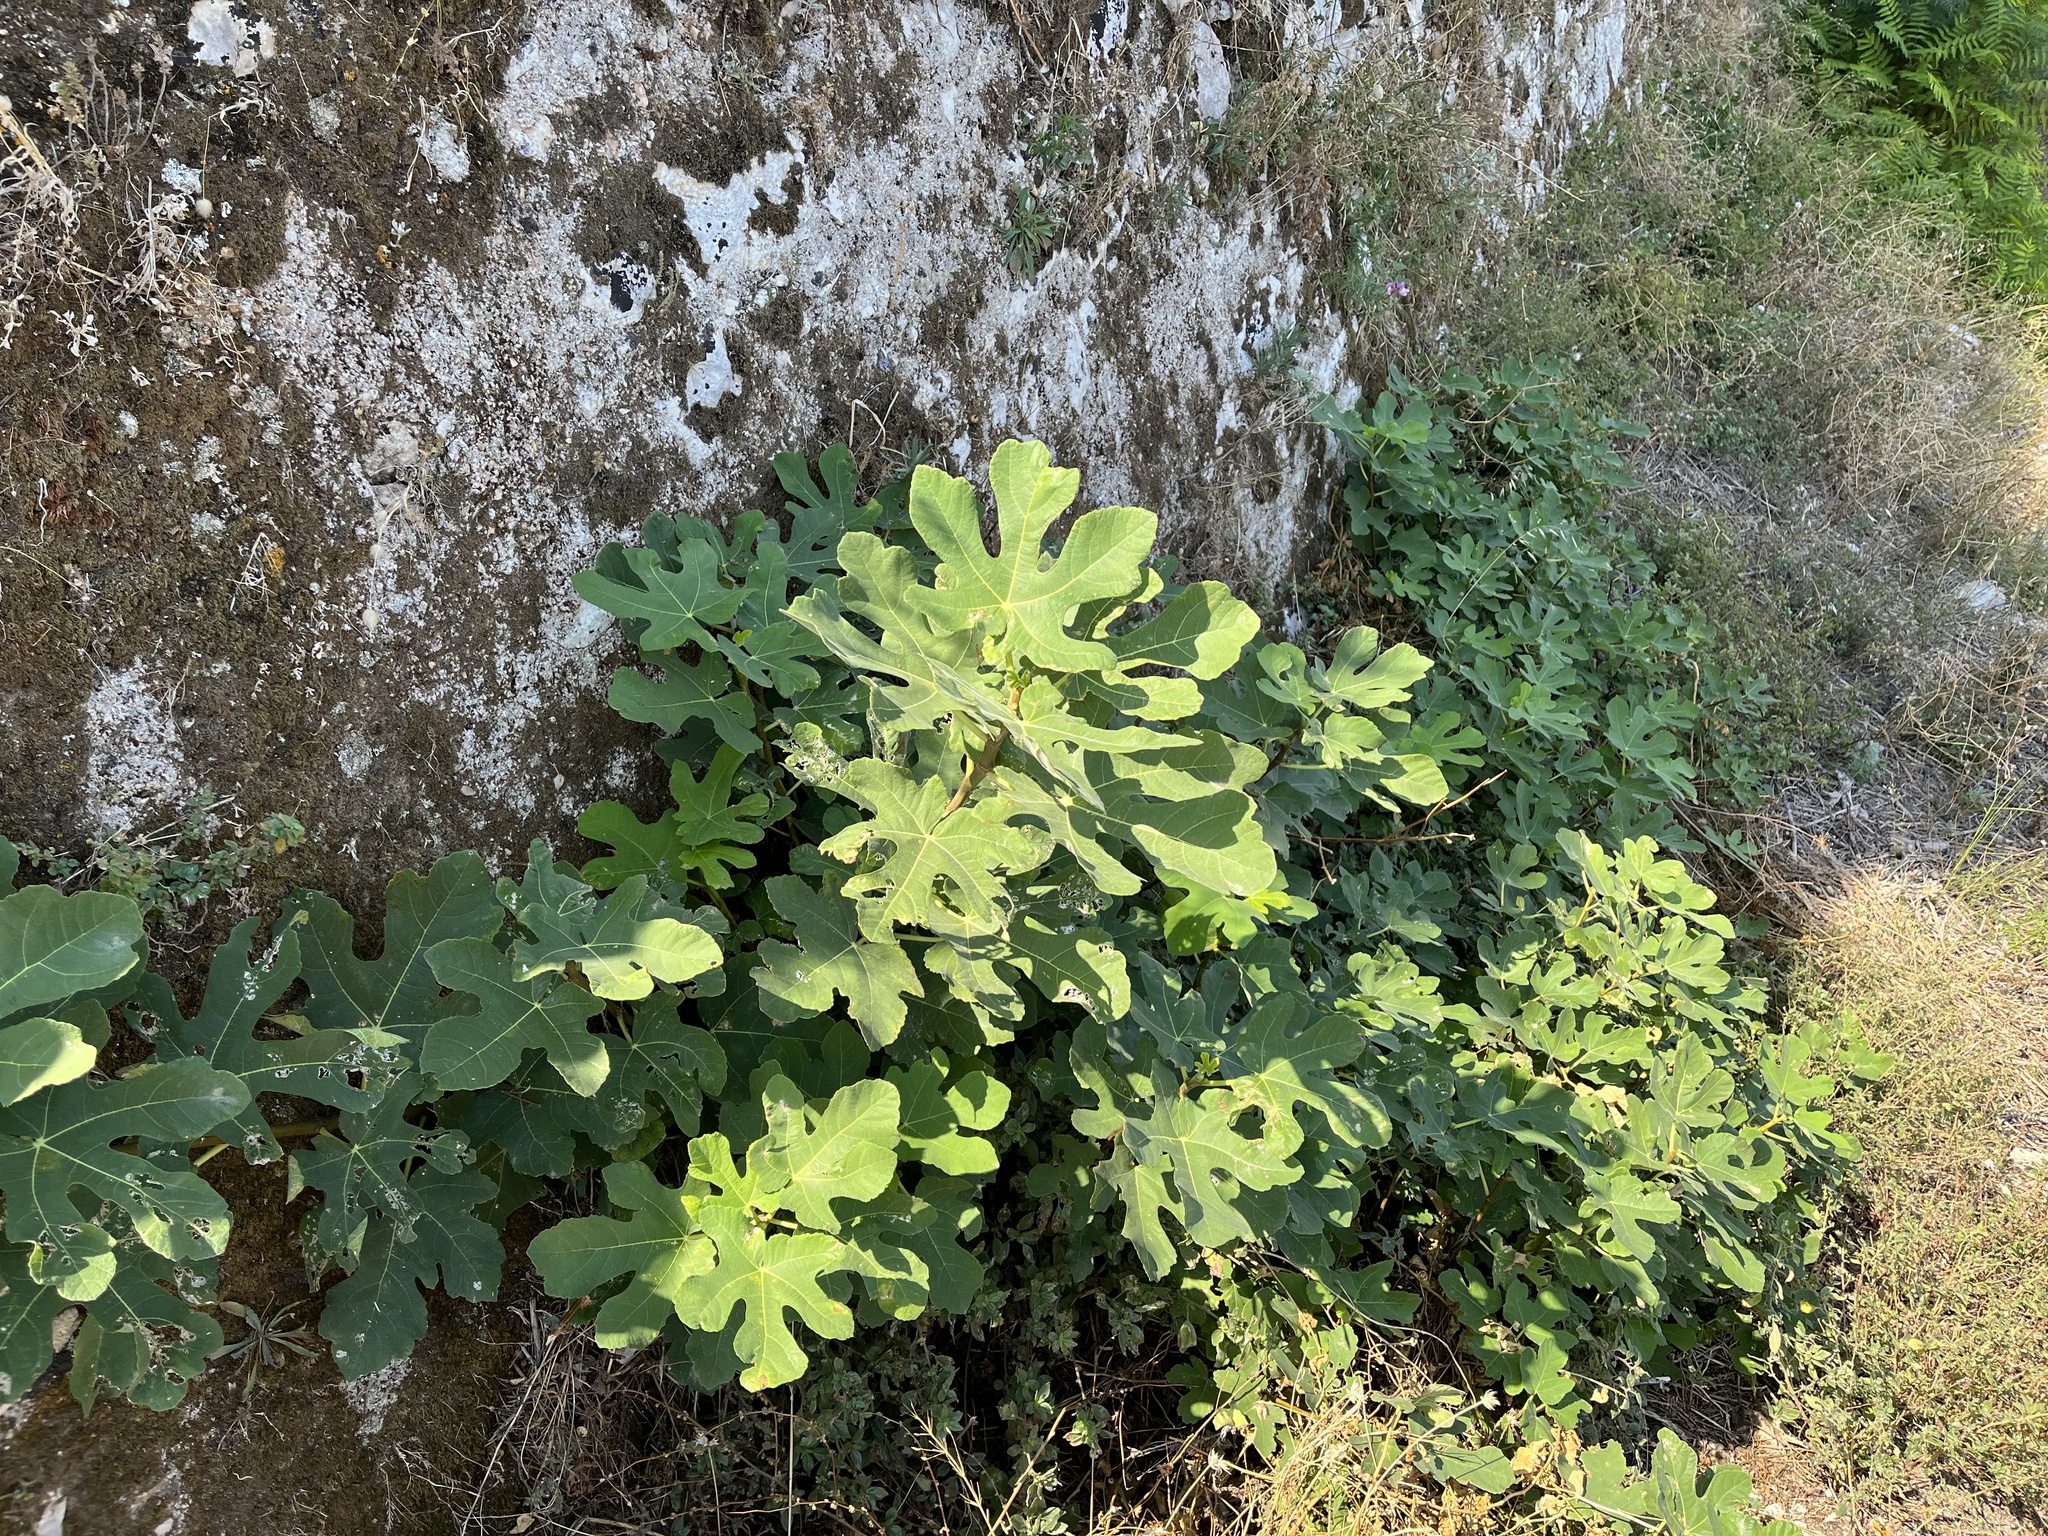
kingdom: Plantae
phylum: Tracheophyta
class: Magnoliopsida
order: Rosales
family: Moraceae
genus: Ficus
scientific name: Ficus carica
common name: Fig
